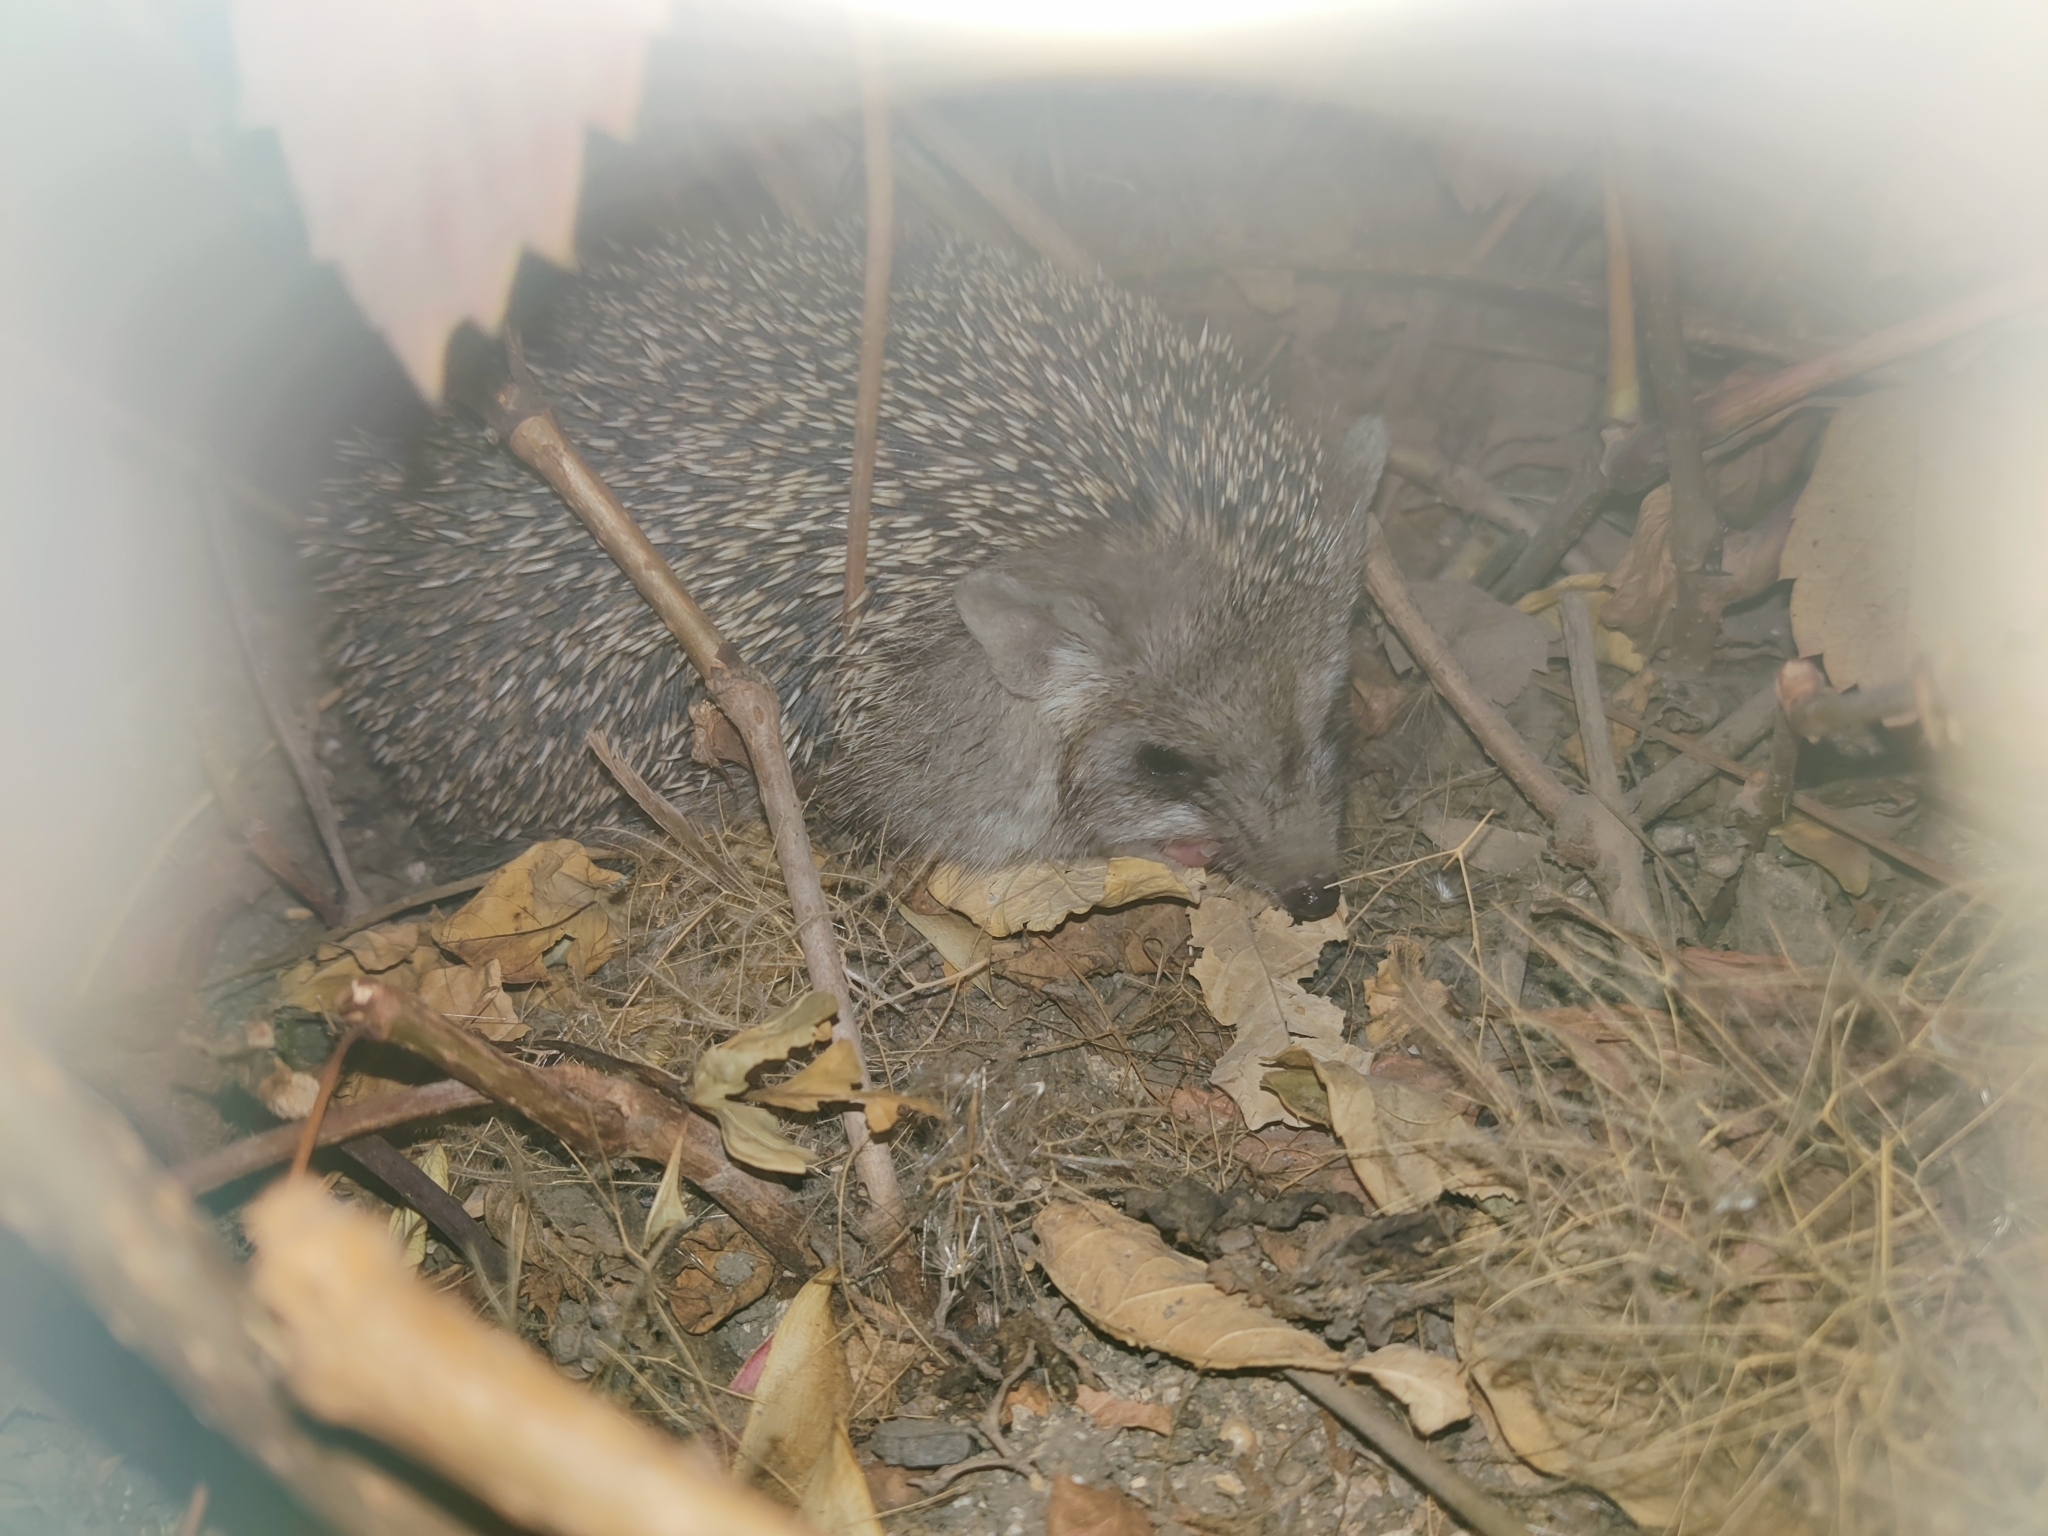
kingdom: Animalia
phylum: Chordata
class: Mammalia
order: Erinaceomorpha
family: Erinaceidae
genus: Hemiechinus
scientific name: Hemiechinus auritus
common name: Long-eared hedgehog
